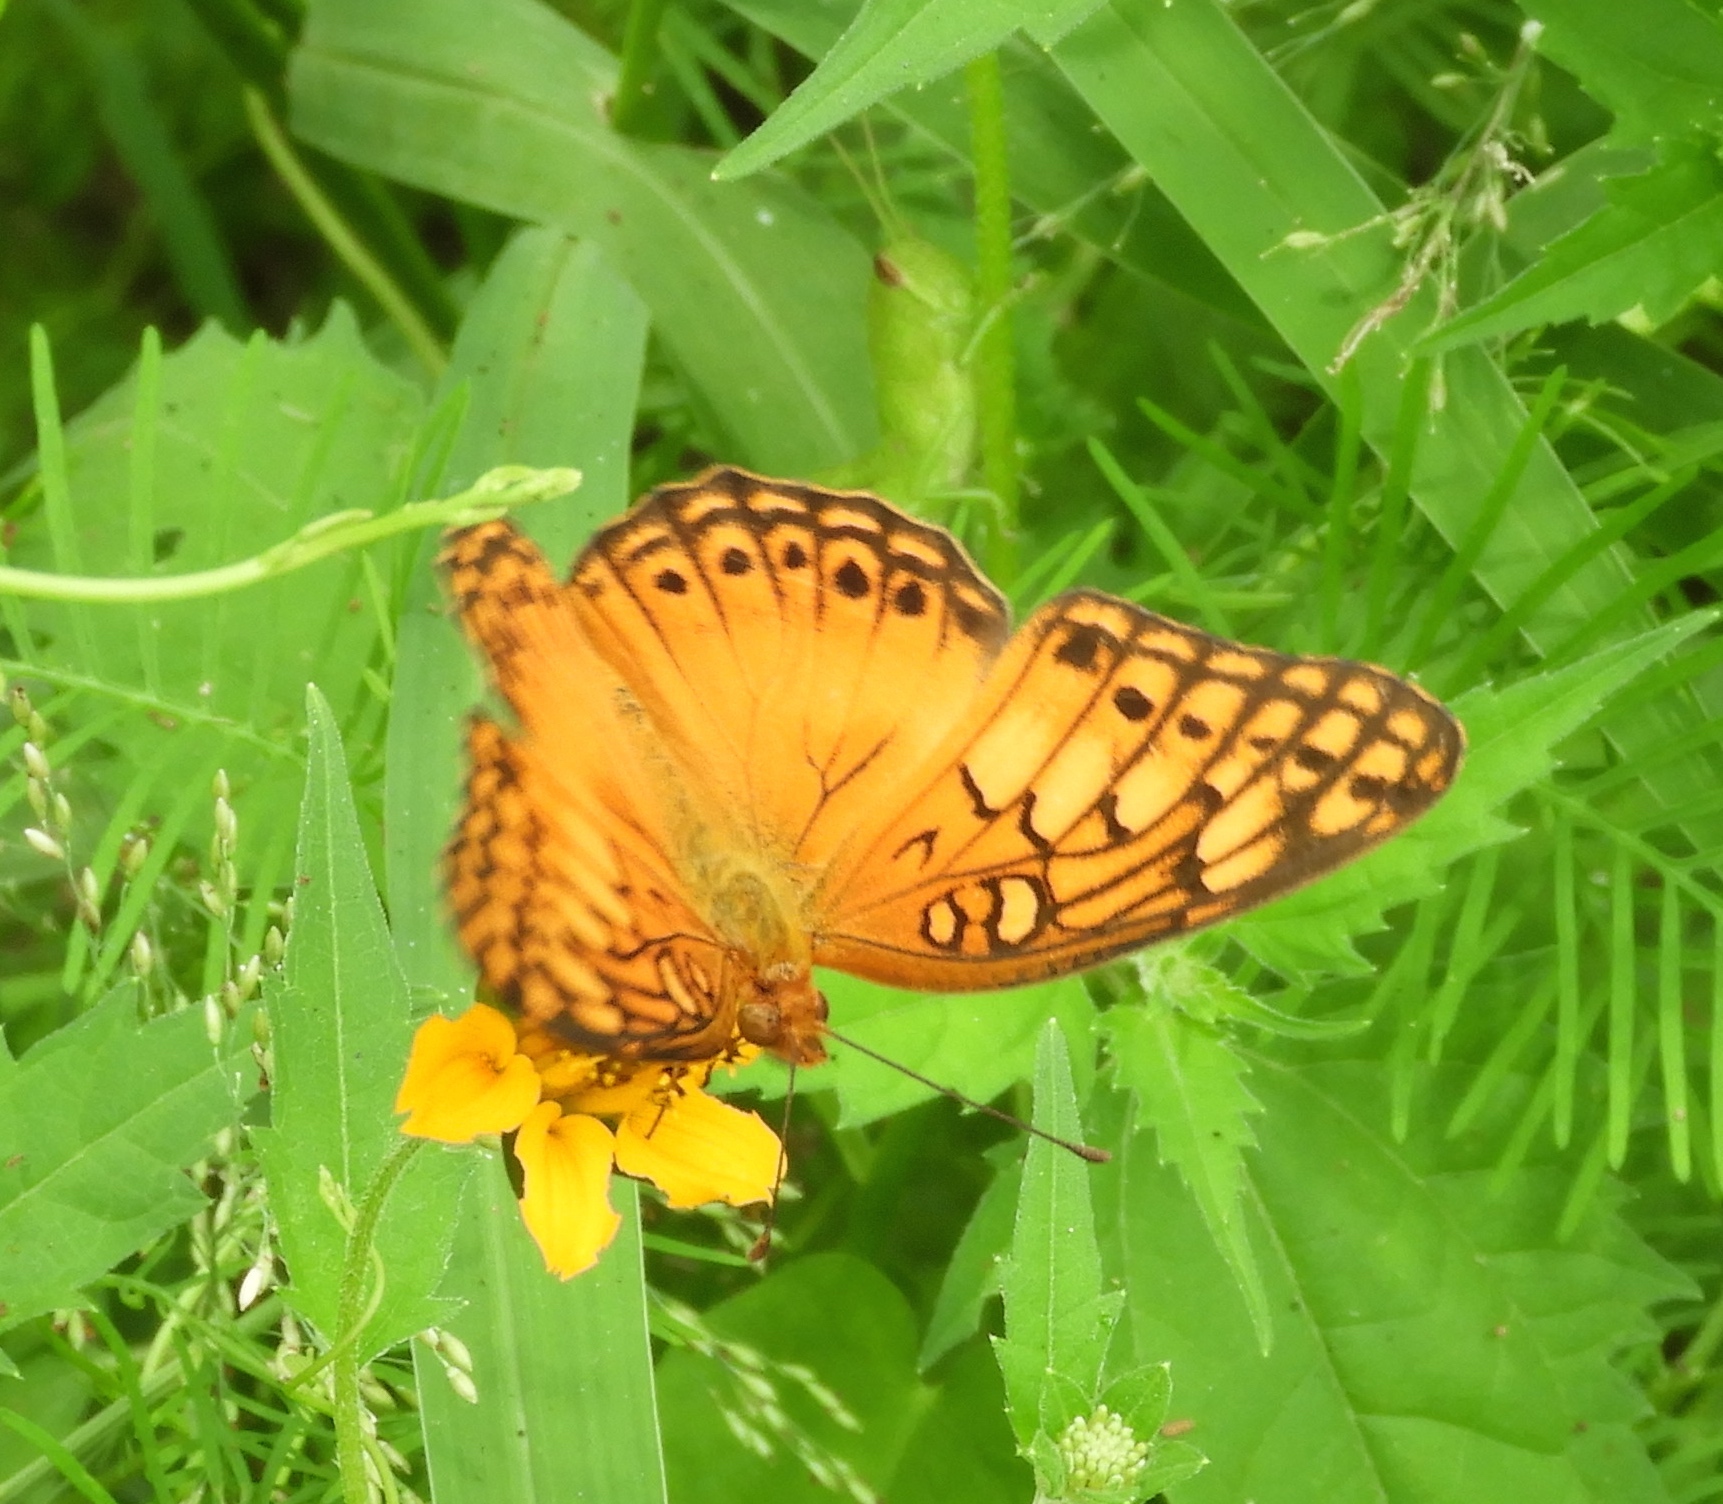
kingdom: Animalia
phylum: Arthropoda
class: Insecta
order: Lepidoptera
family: Nymphalidae
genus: Euptoieta
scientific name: Euptoieta hegesia
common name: Mexican fritillary
